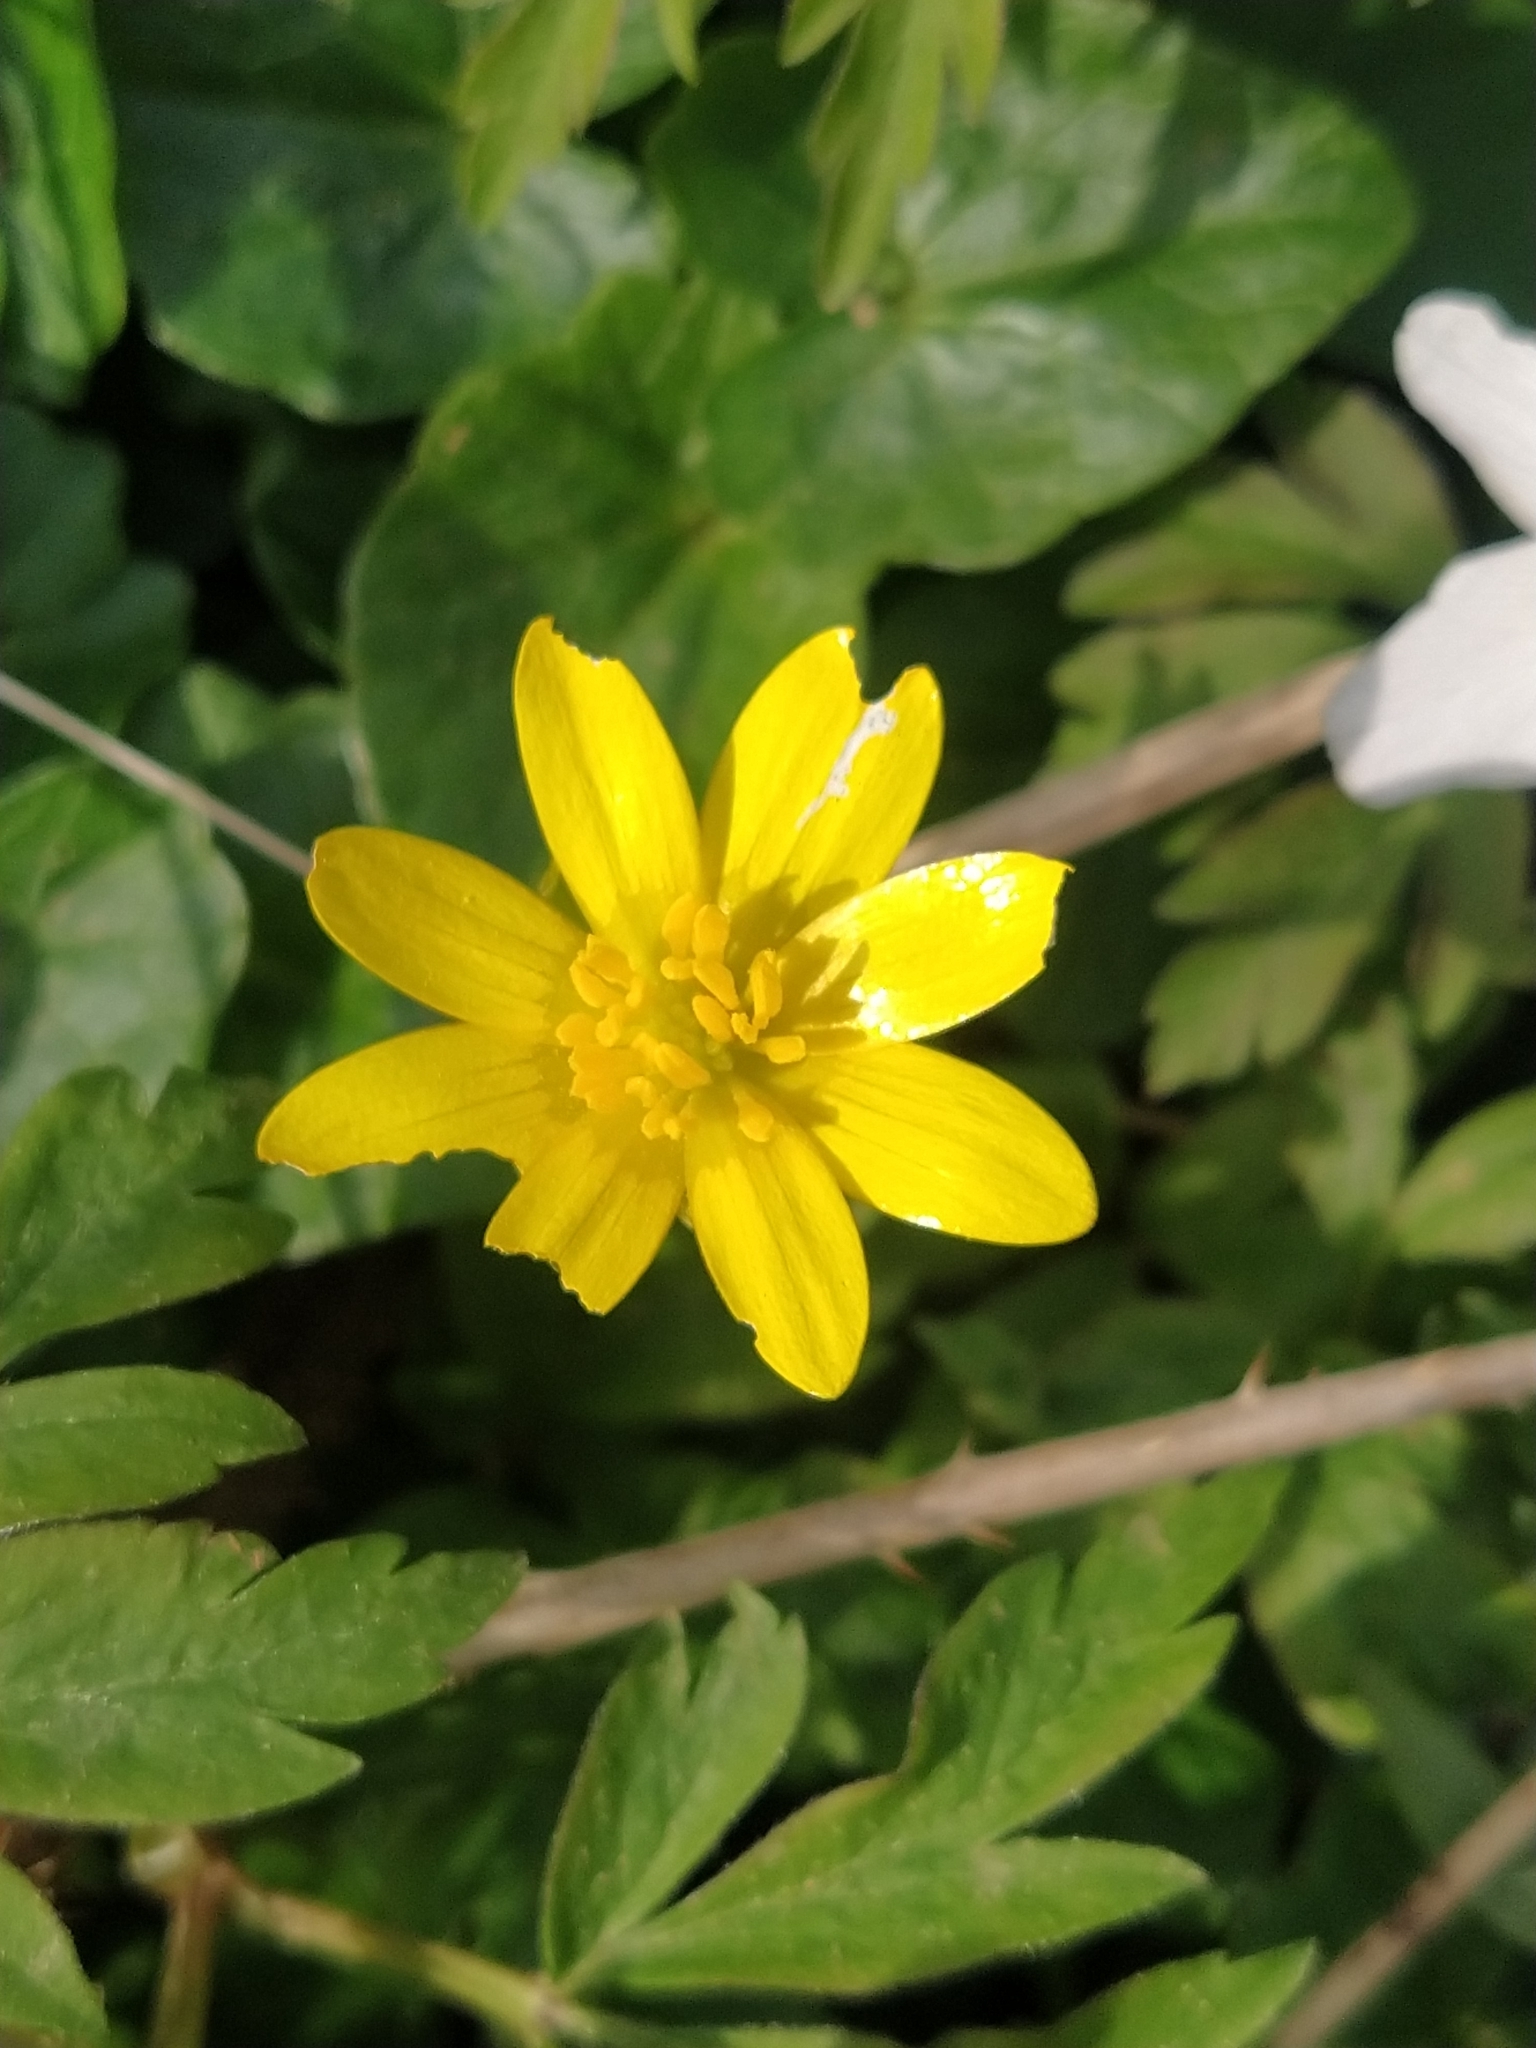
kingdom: Plantae
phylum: Tracheophyta
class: Magnoliopsida
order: Ranunculales
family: Ranunculaceae
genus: Ficaria
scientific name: Ficaria verna
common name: Lesser celandine
